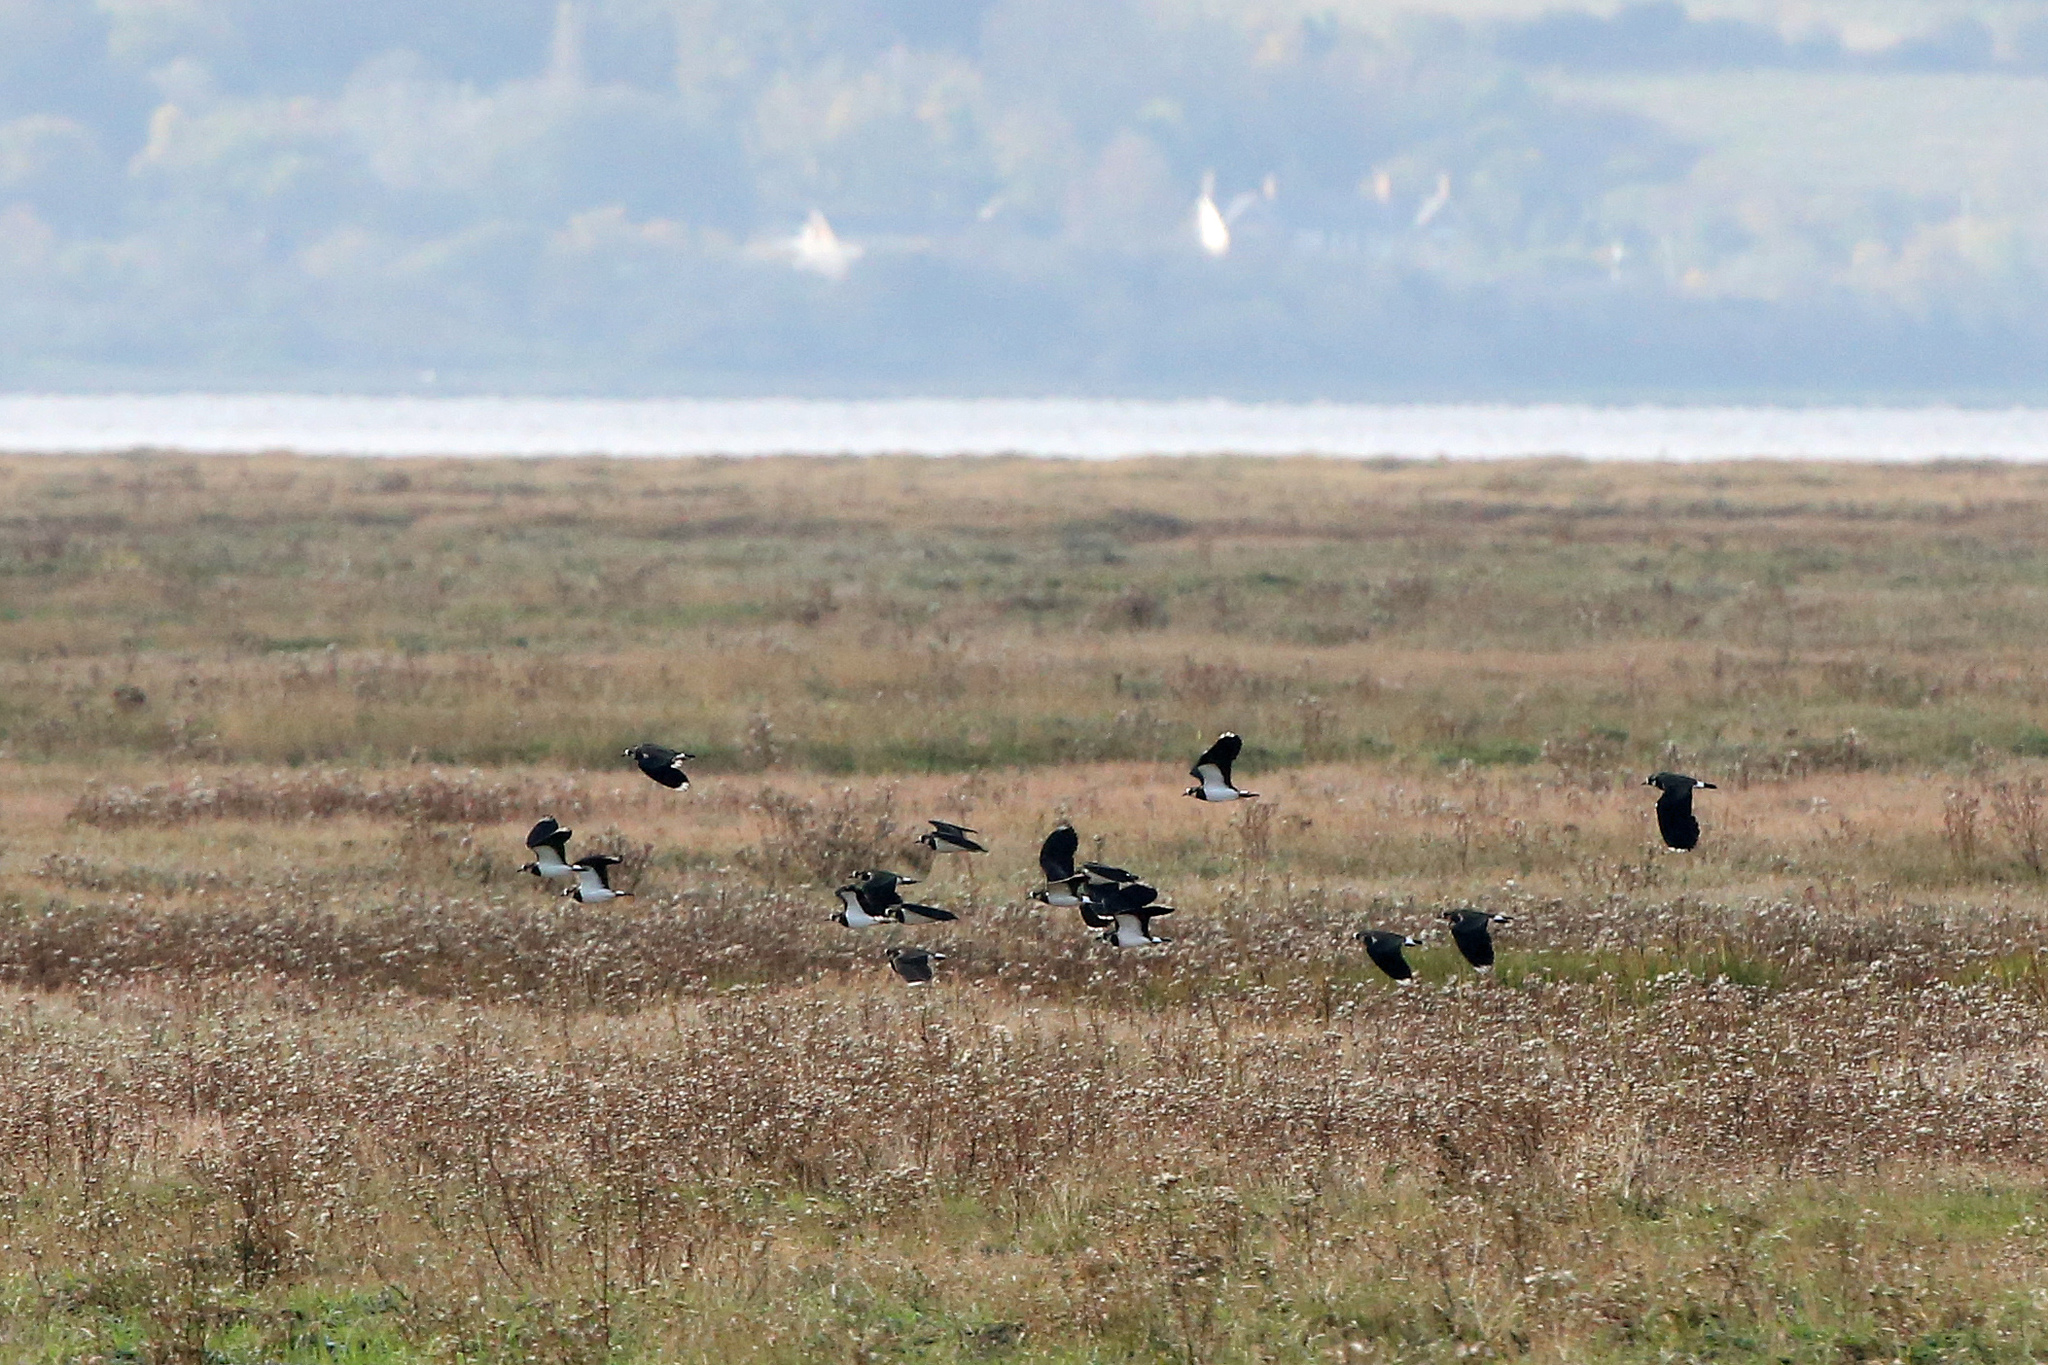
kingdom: Animalia
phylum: Chordata
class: Aves
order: Charadriiformes
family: Charadriidae
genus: Vanellus
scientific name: Vanellus vanellus
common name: Northern lapwing
